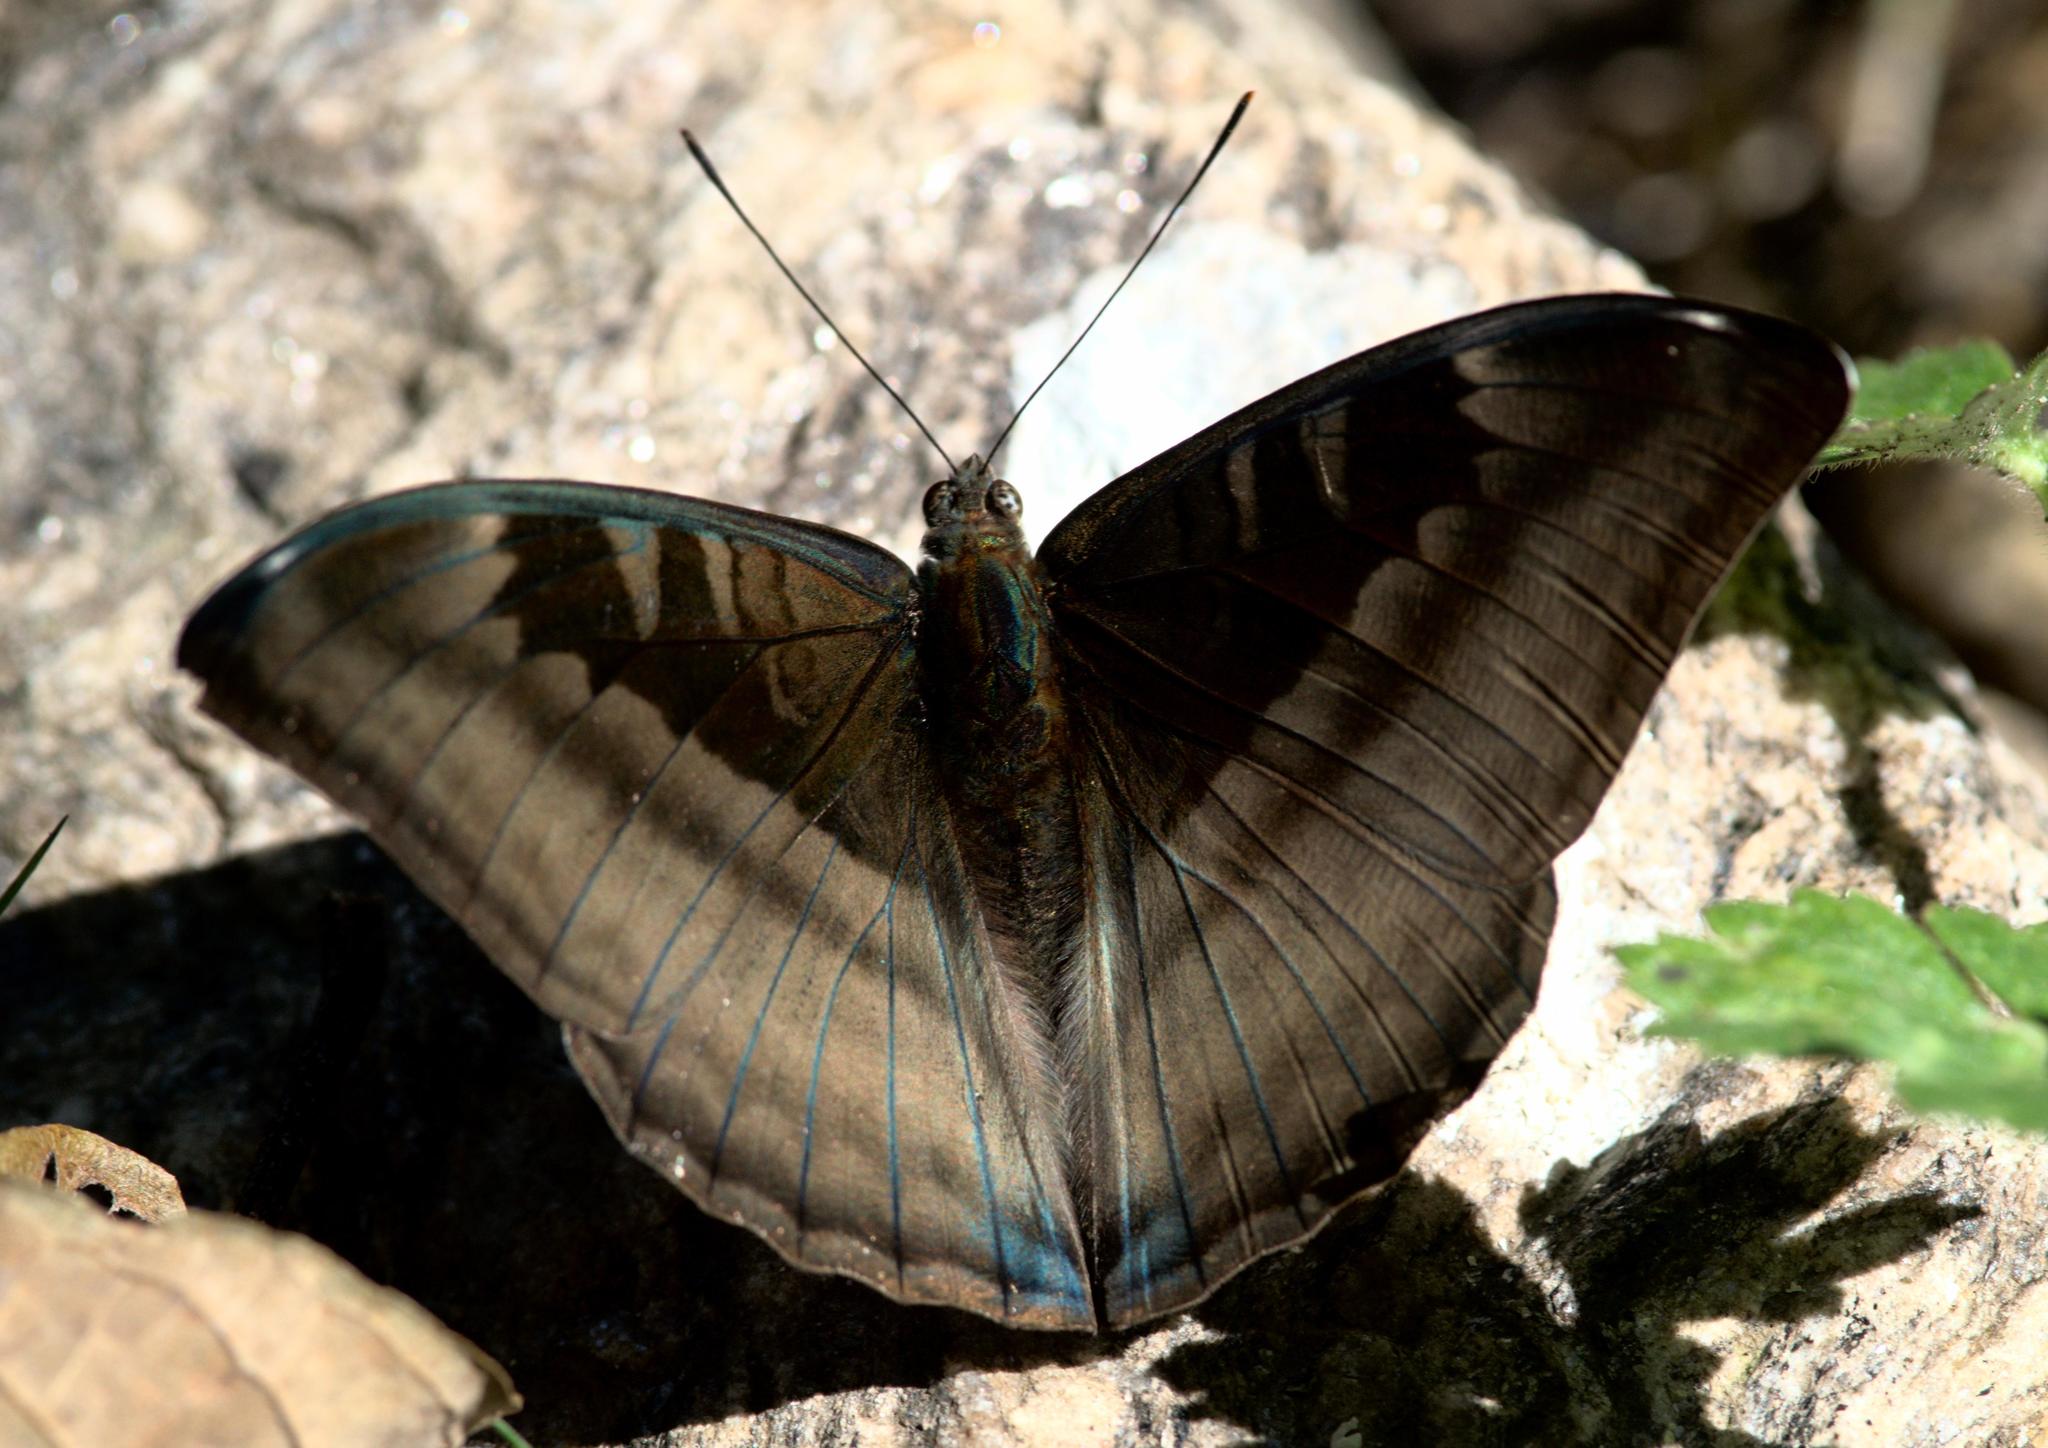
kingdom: Animalia
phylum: Arthropoda
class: Insecta
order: Lepidoptera
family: Nymphalidae
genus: Limenitis
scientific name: Limenitis Auzakia danava
